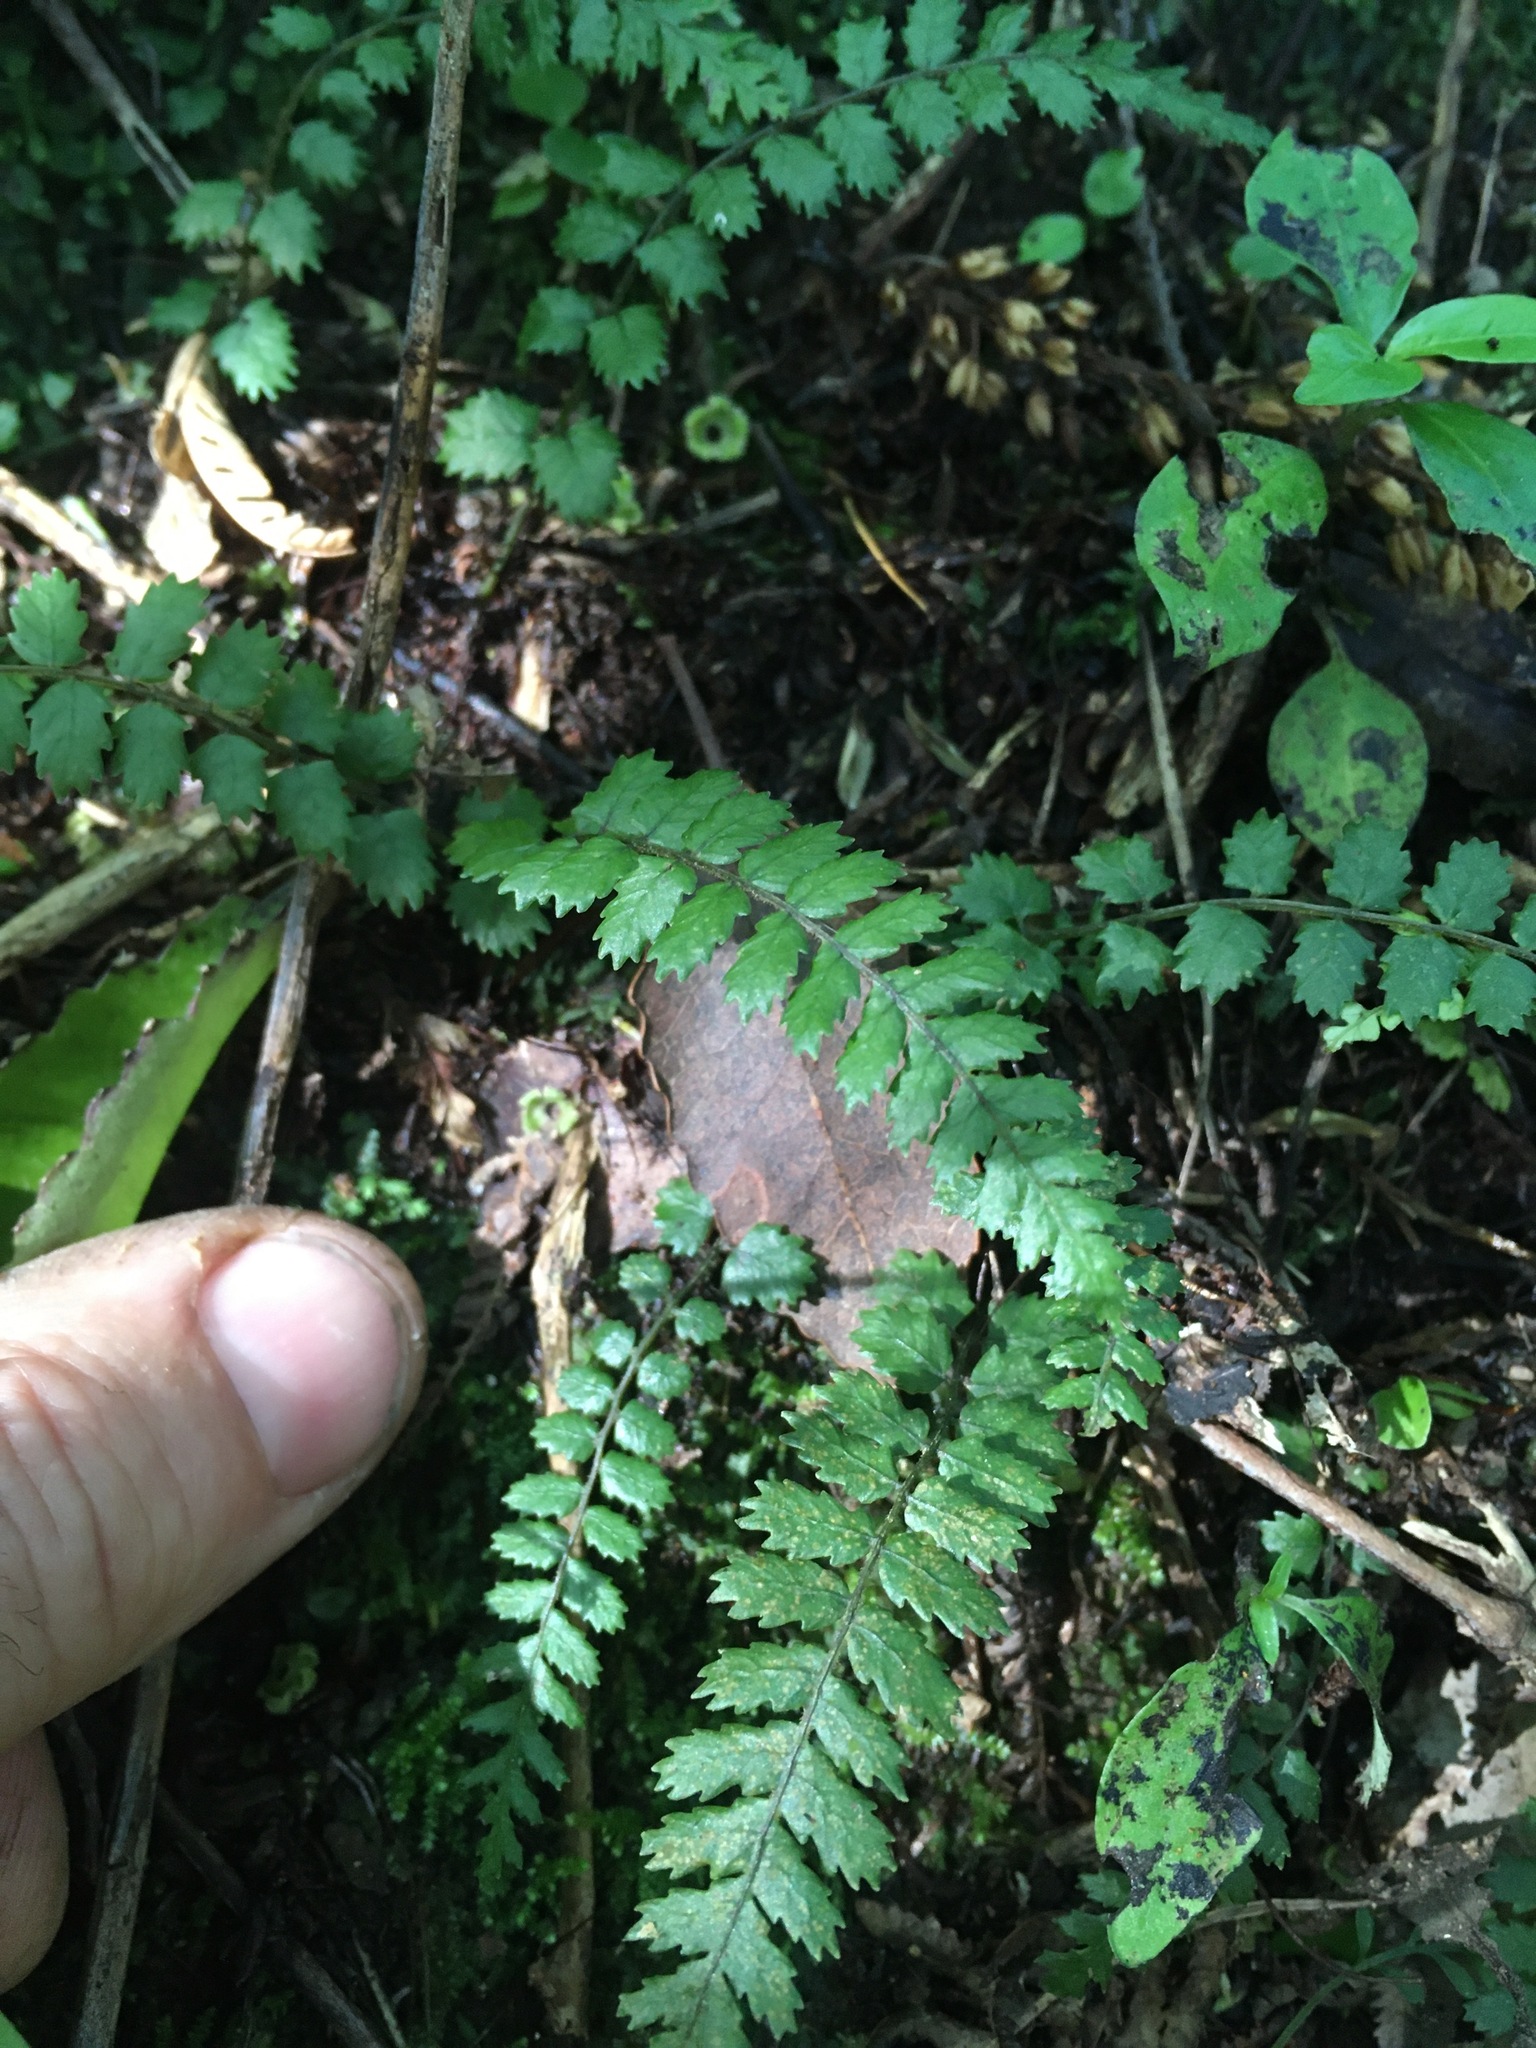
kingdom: Plantae
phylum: Tracheophyta
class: Polypodiopsida
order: Polypodiales
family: Blechnaceae
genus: Icarus
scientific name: Icarus filiformis
